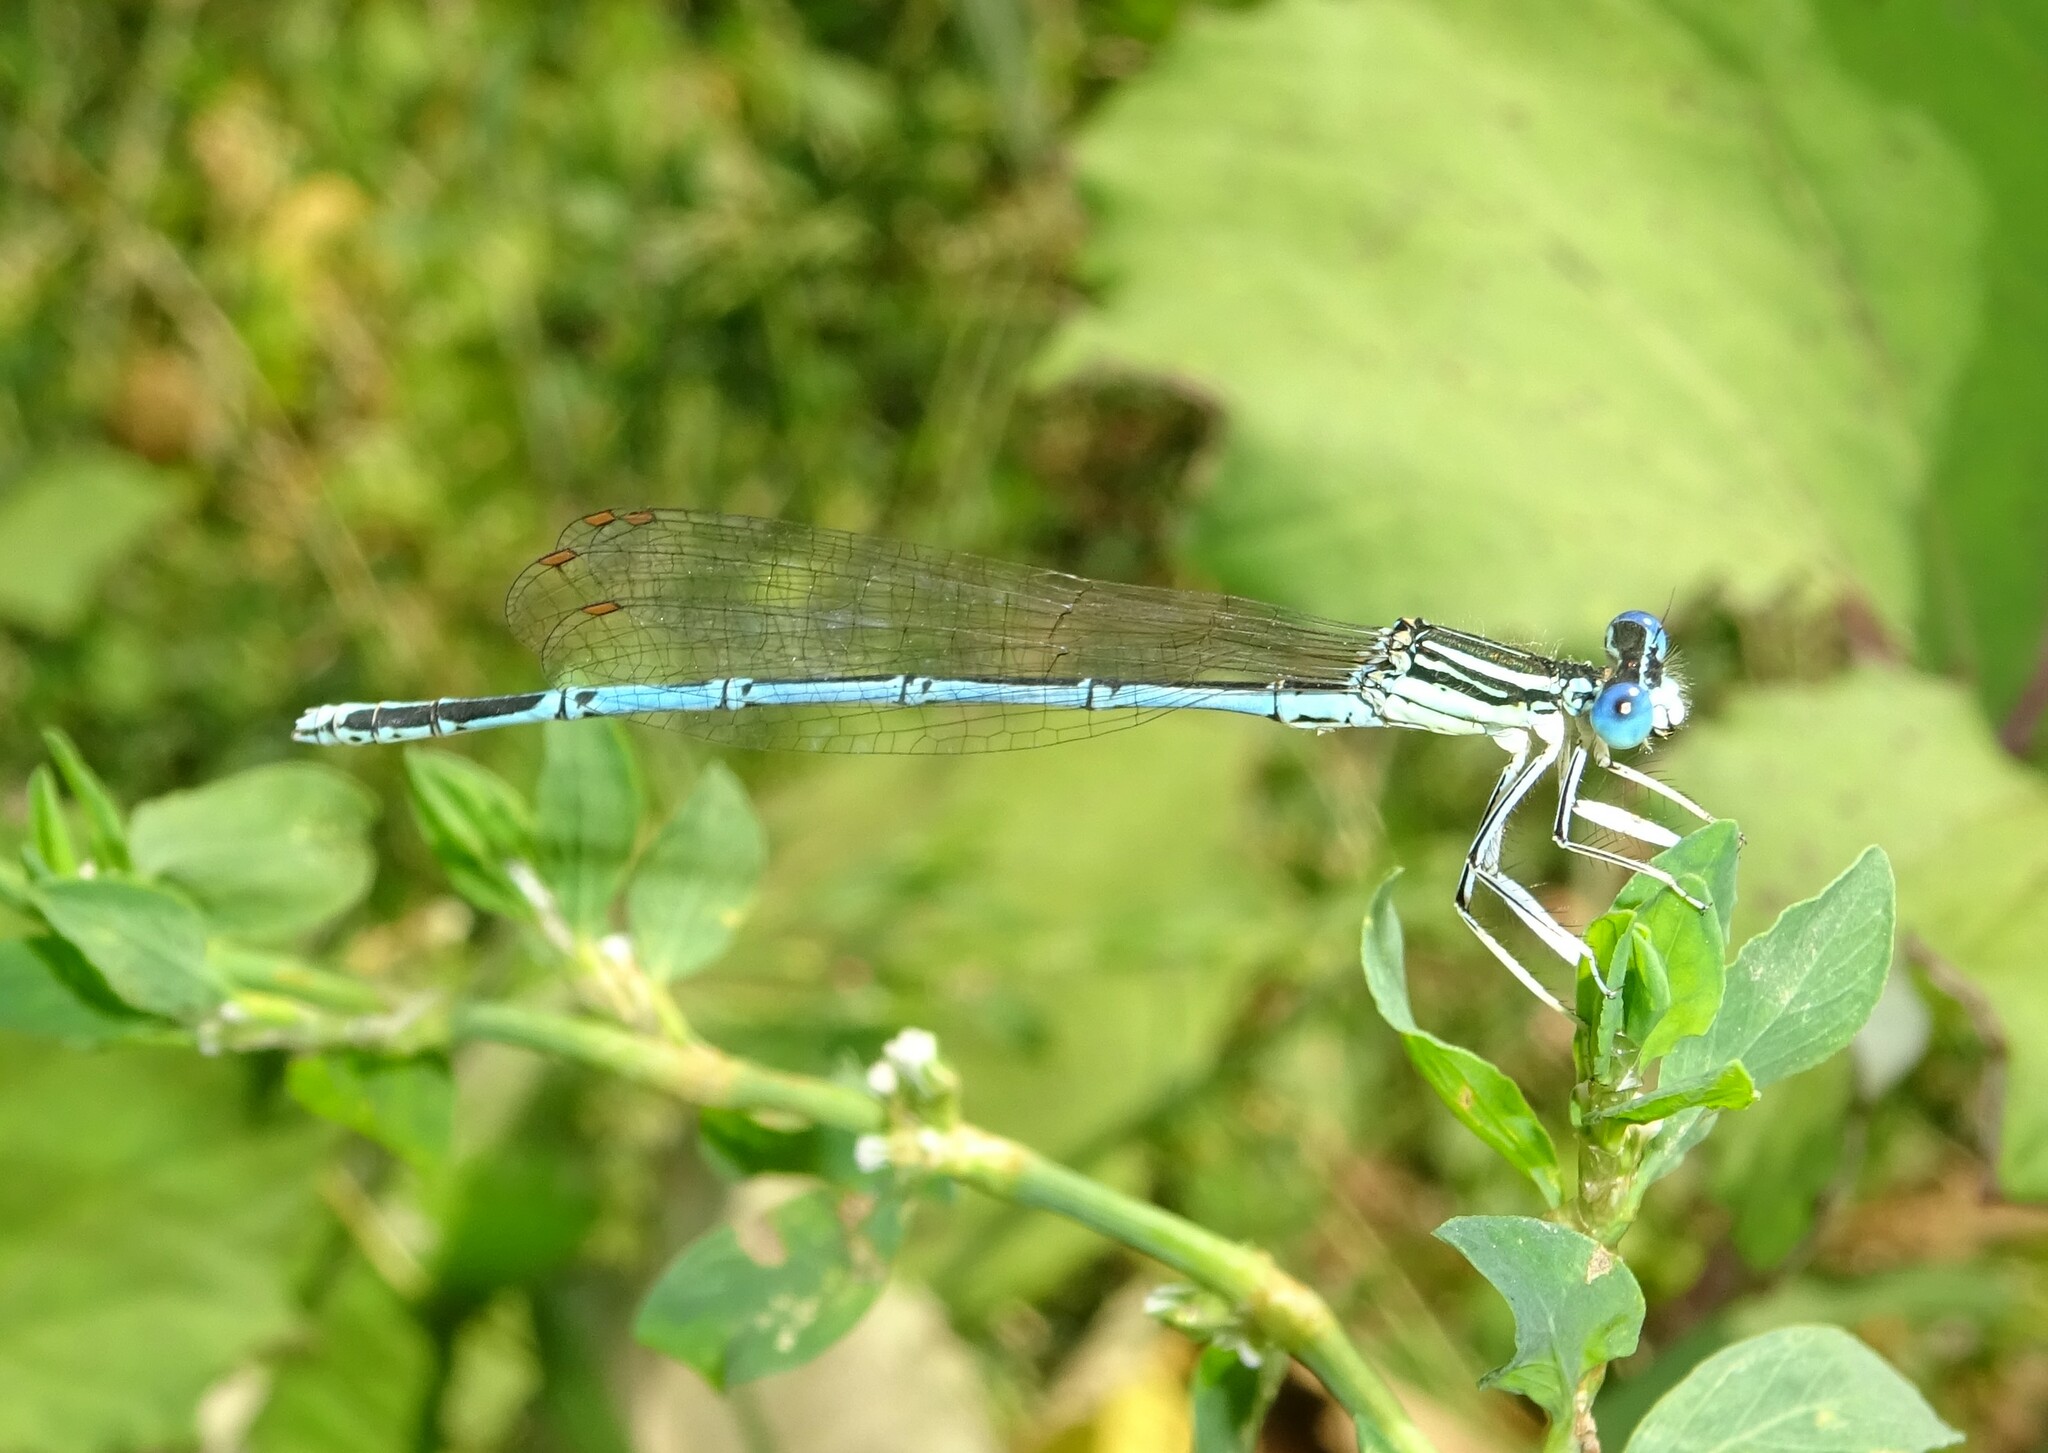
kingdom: Animalia
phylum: Arthropoda
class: Insecta
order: Odonata
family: Platycnemididae
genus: Platycnemis
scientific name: Platycnemis pennipes
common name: White-legged damselfly
